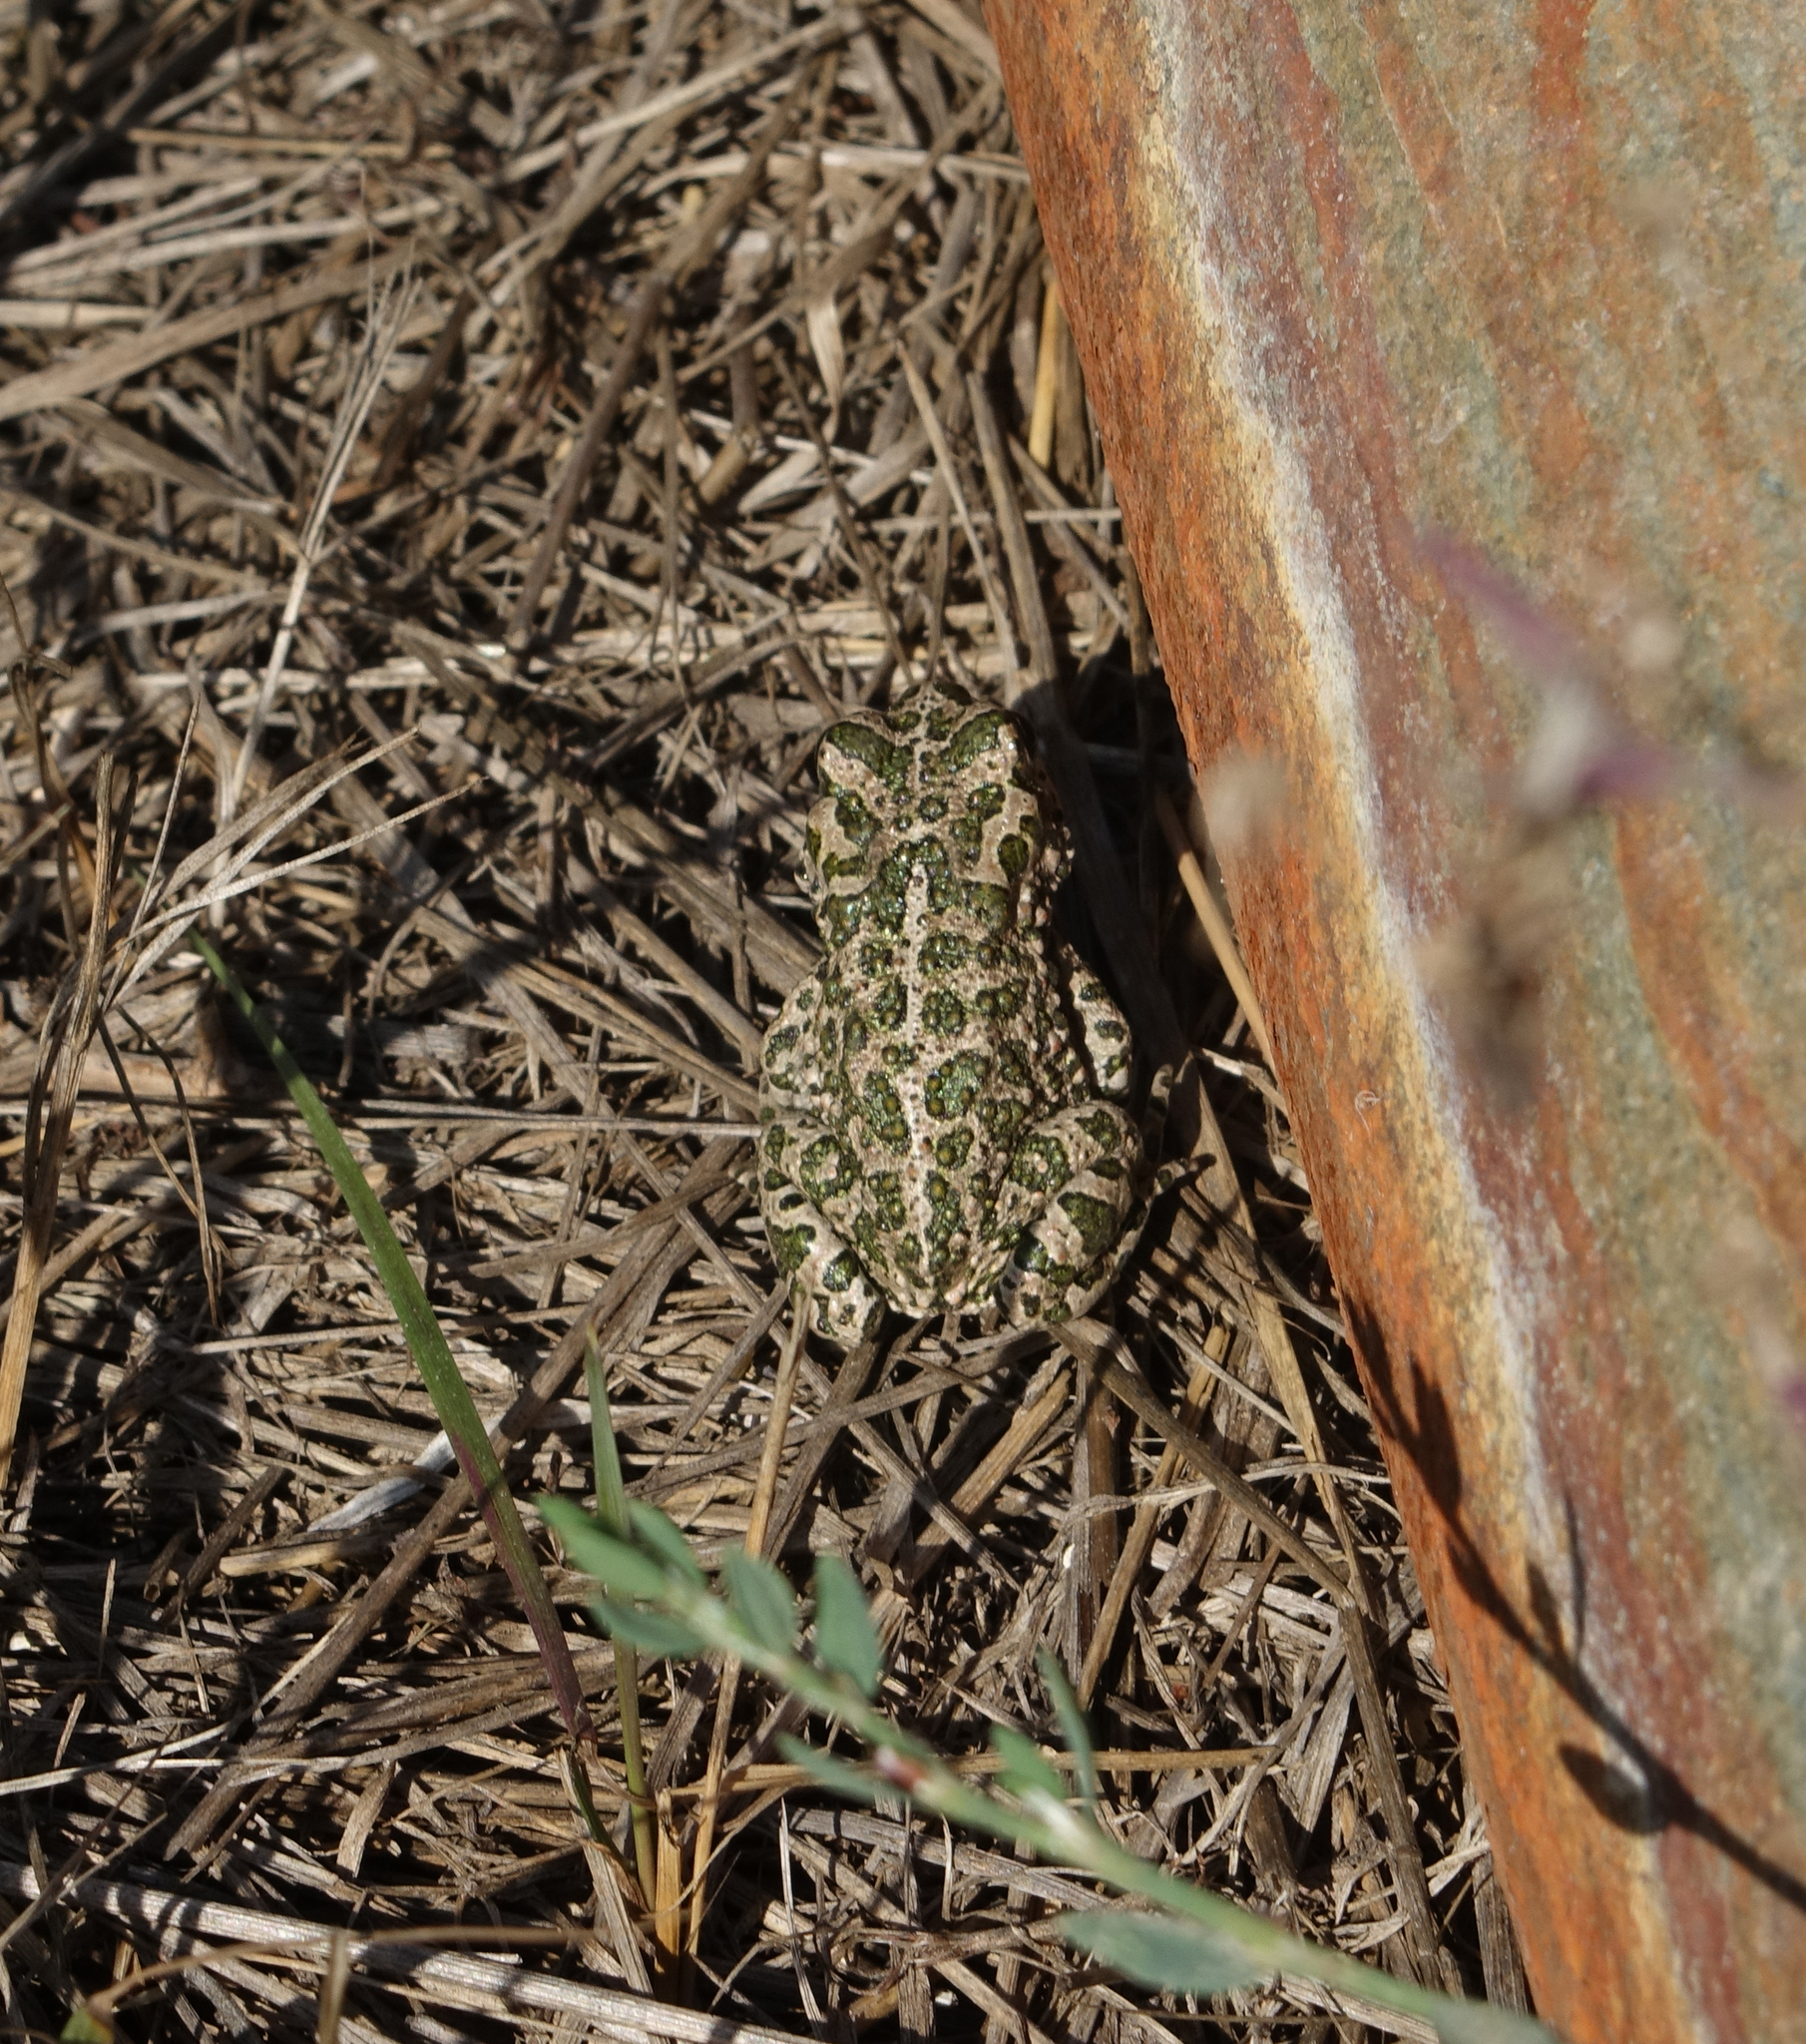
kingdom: Animalia
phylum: Chordata
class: Amphibia
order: Anura
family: Bufonidae
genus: Bufotes
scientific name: Bufotes viridis
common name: European green toad
